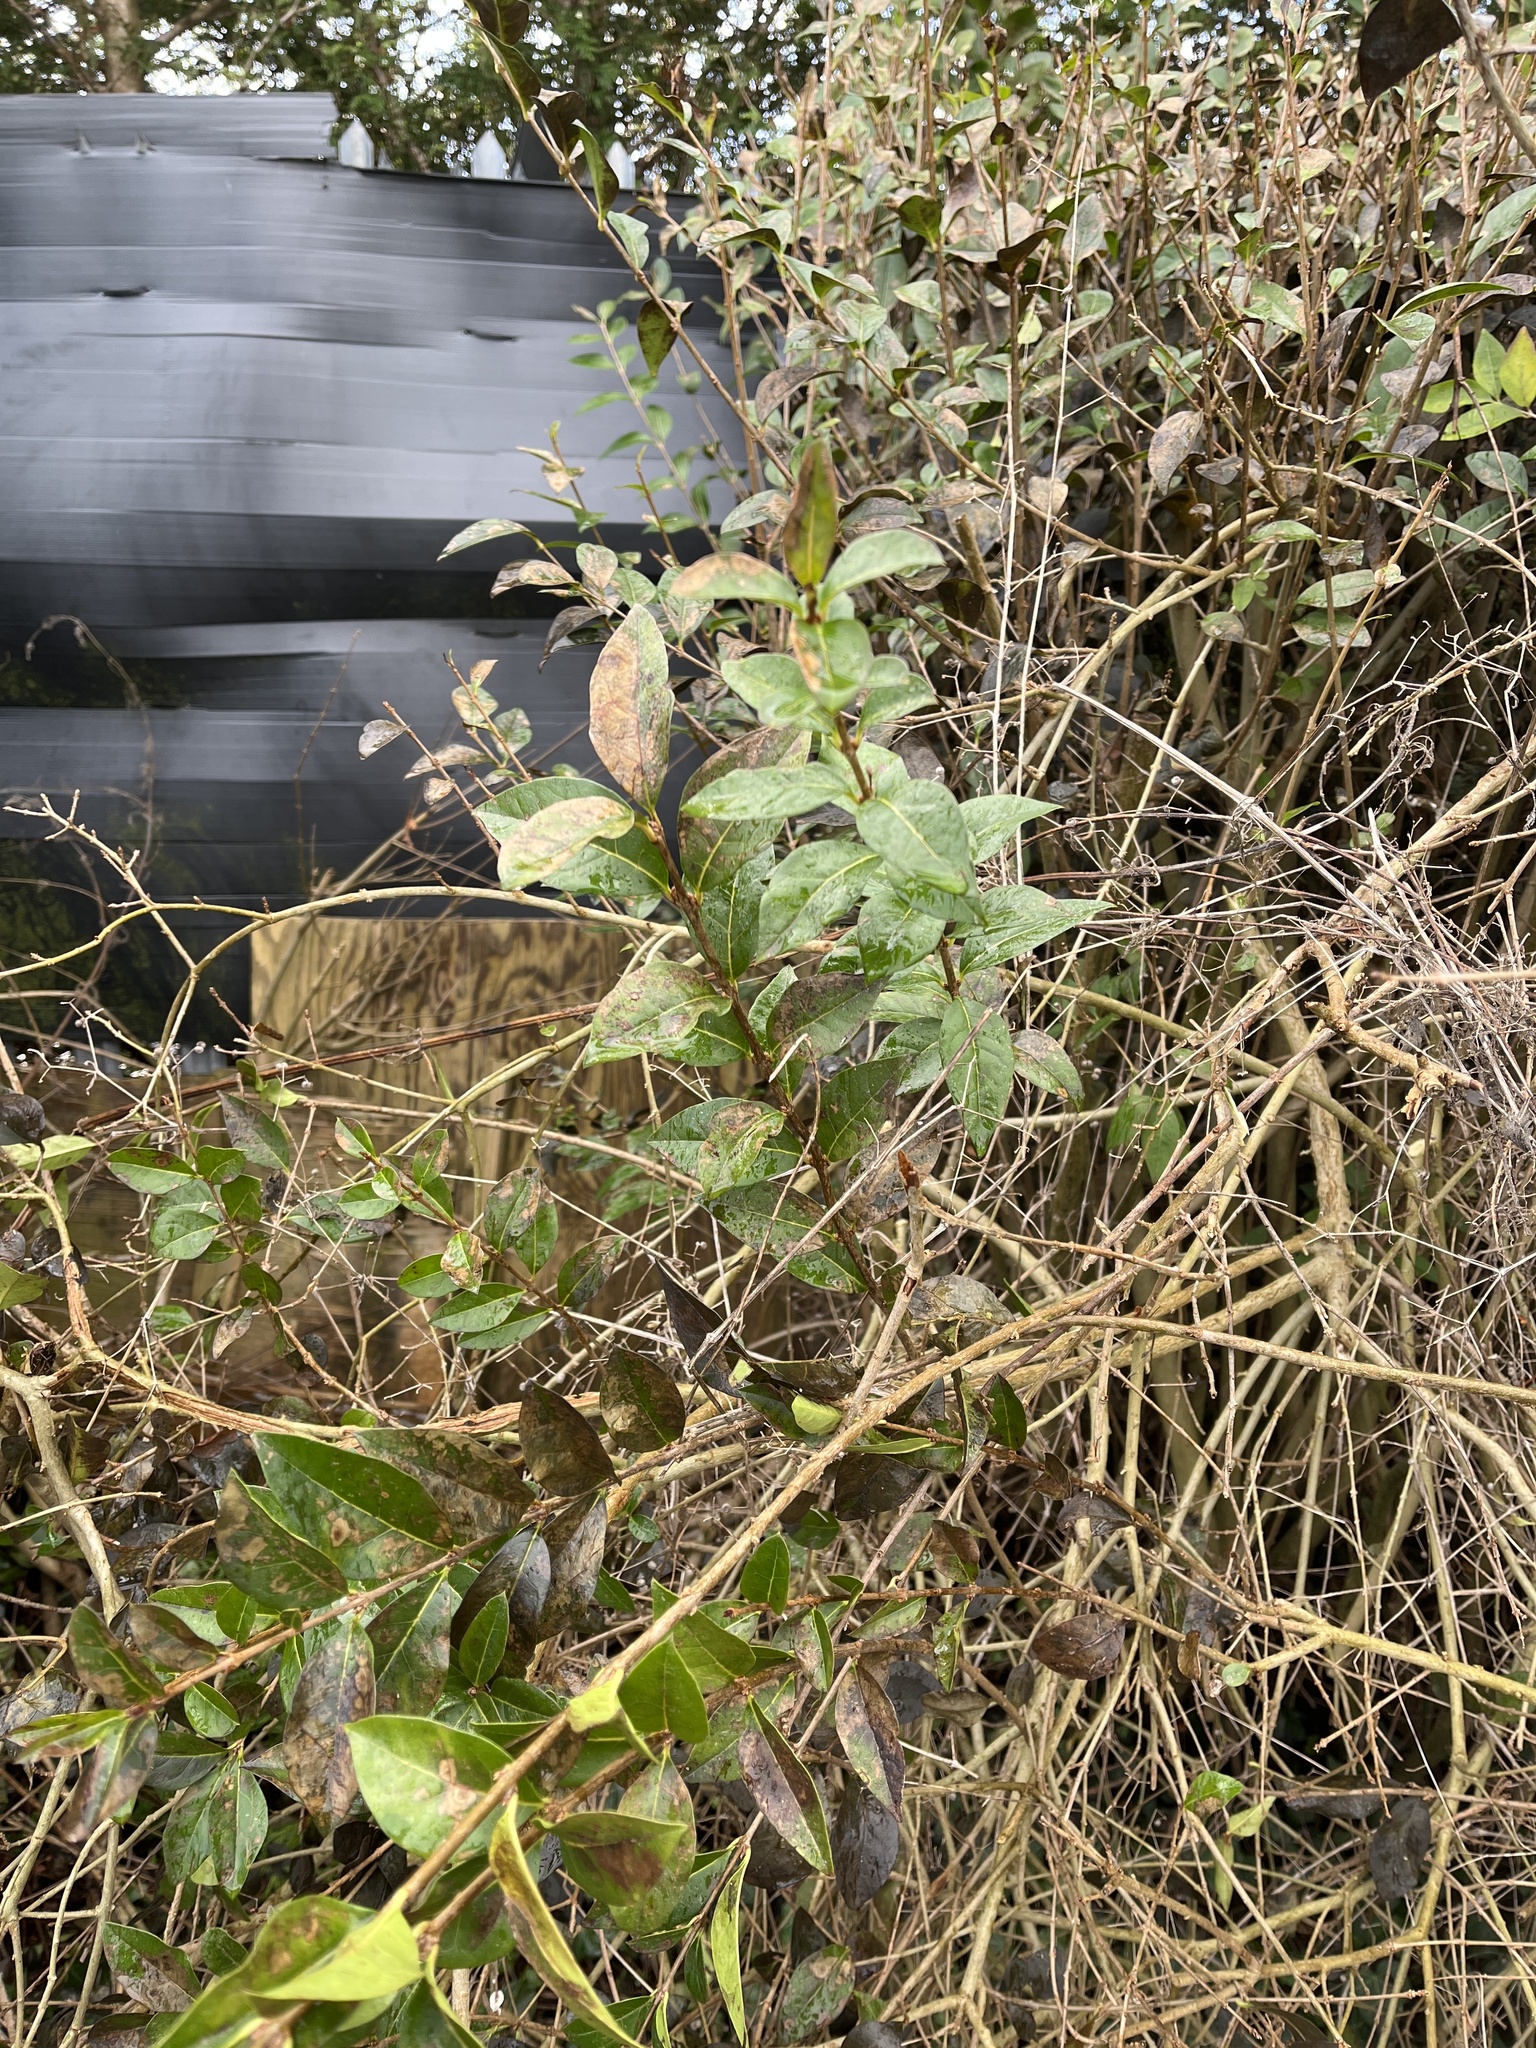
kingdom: Plantae
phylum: Tracheophyta
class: Magnoliopsida
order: Lamiales
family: Oleaceae
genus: Ligustrum
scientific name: Ligustrum ovalifolium
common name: California privet
